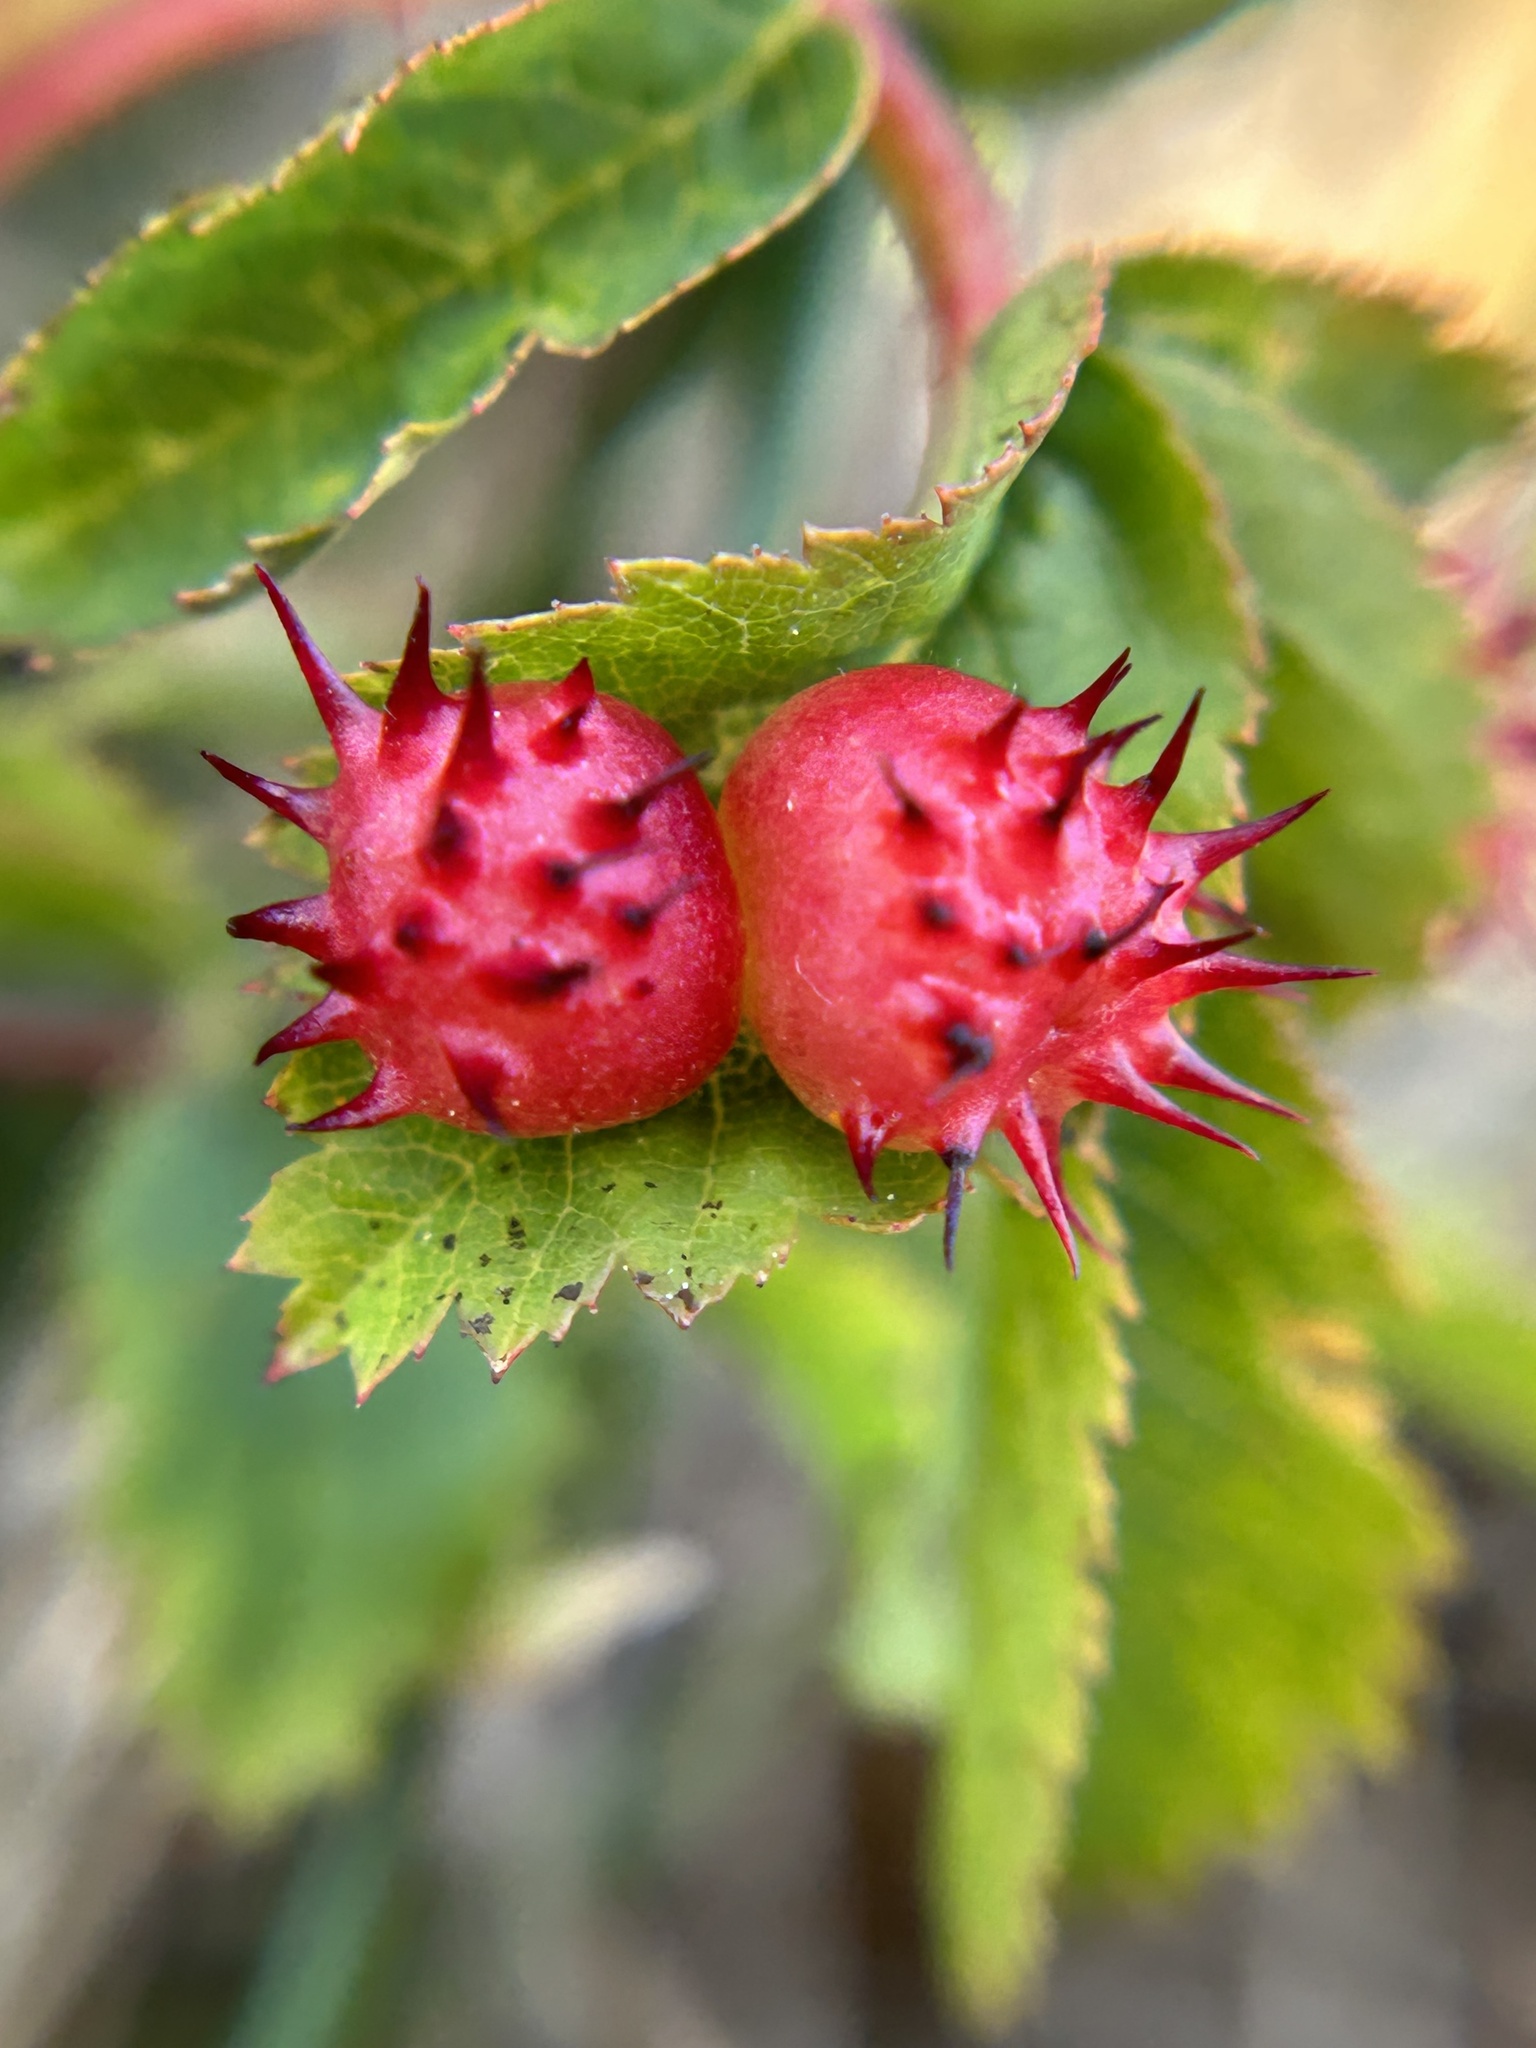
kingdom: Animalia
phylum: Arthropoda
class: Insecta
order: Hymenoptera
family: Cynipidae
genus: Diplolepis
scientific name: Diplolepis polita
